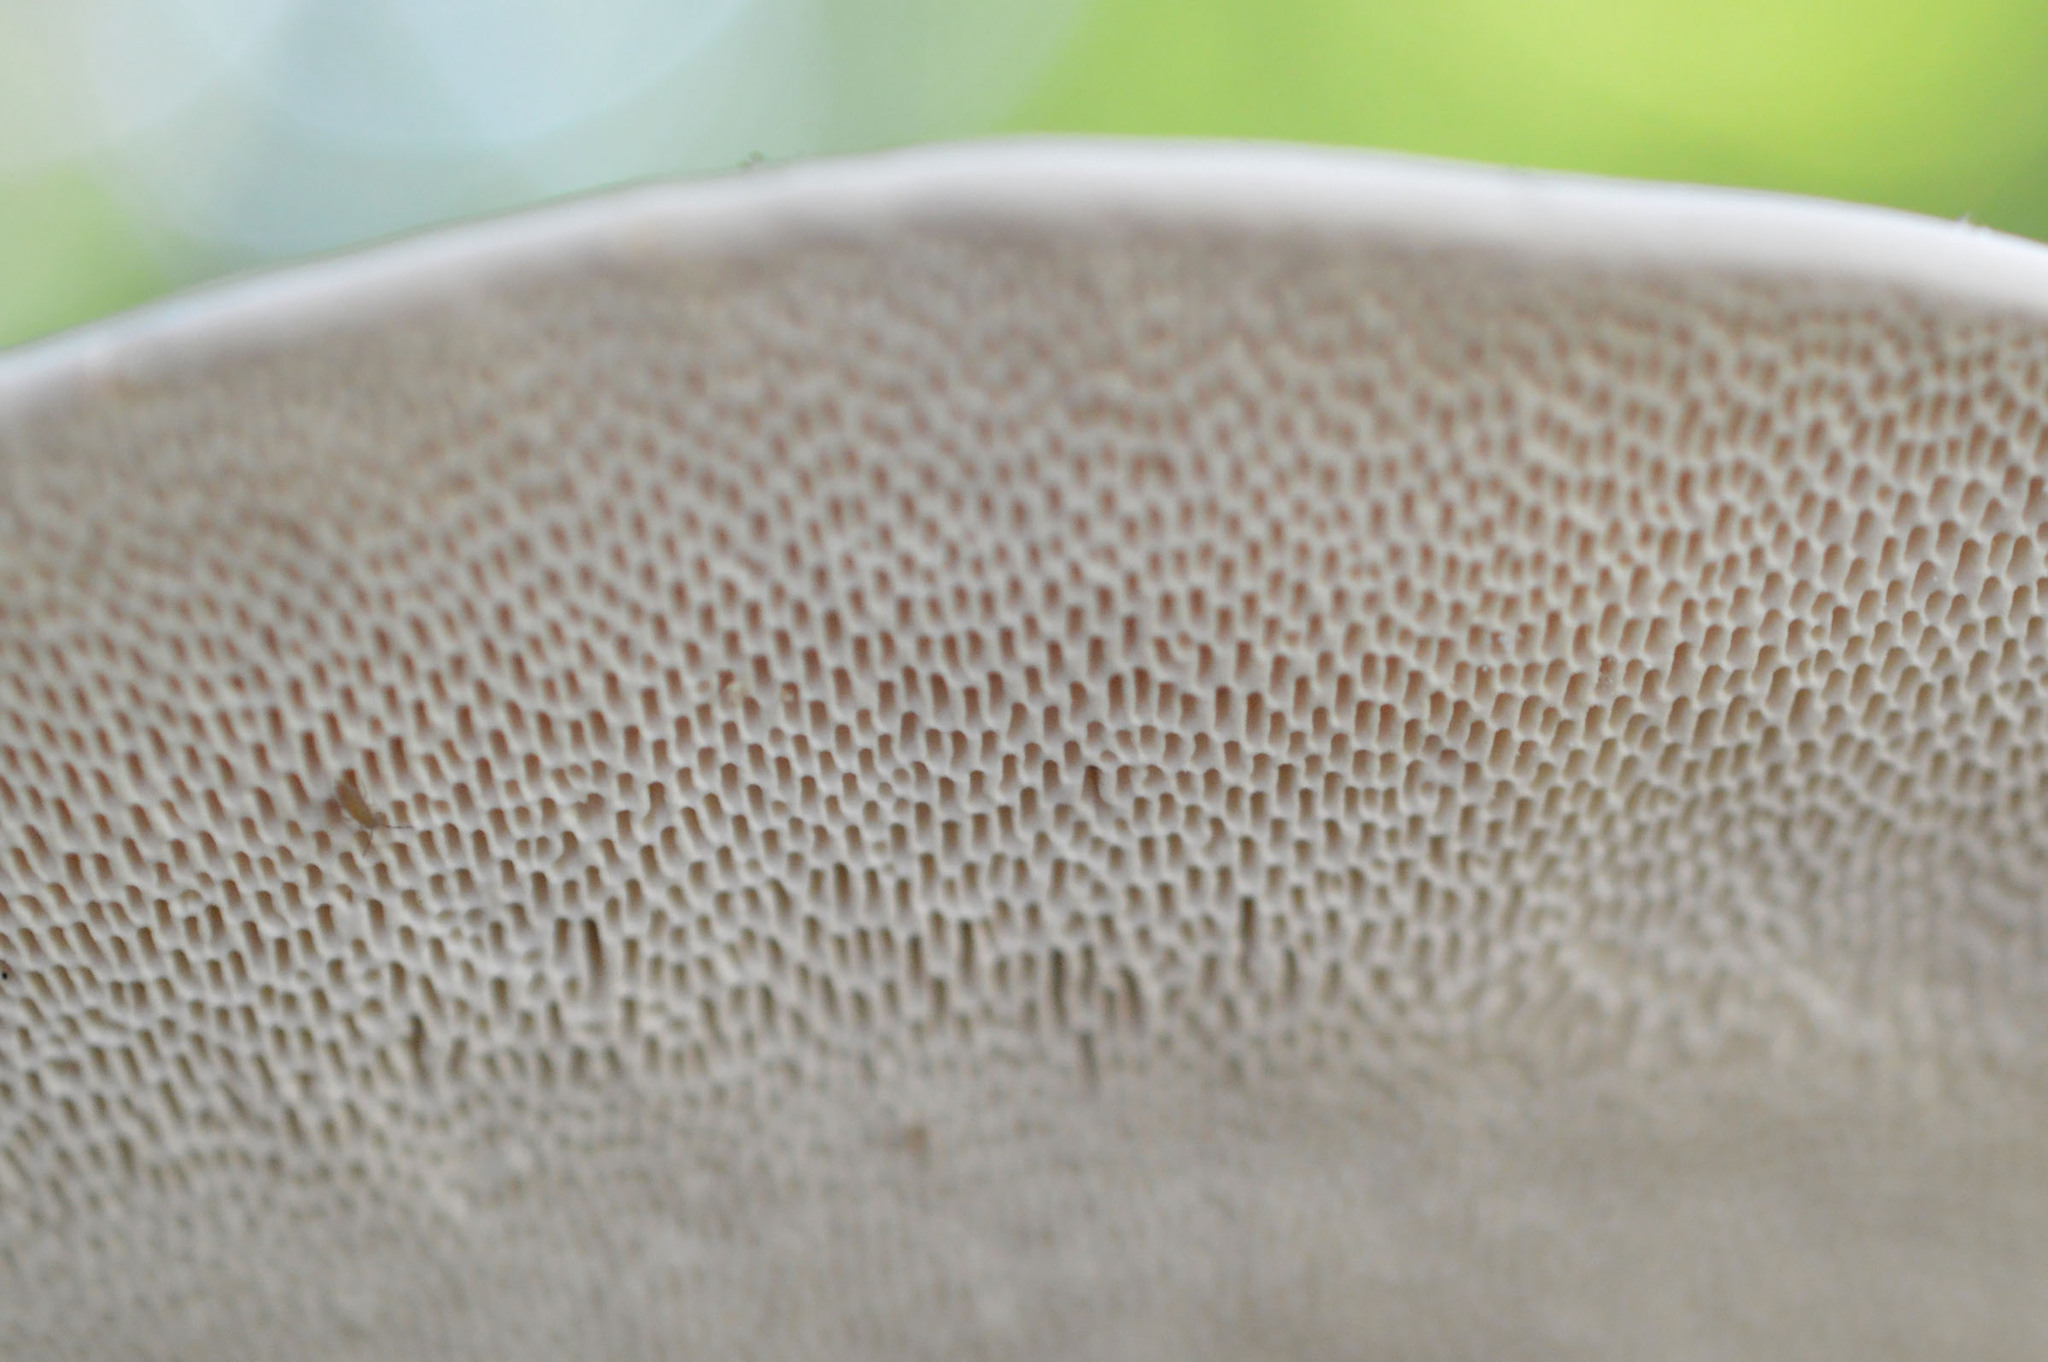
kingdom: Fungi
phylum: Basidiomycota
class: Agaricomycetes
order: Polyporales
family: Polyporaceae
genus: Trametes
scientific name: Trametes gibbosa
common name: Lumpy bracket
